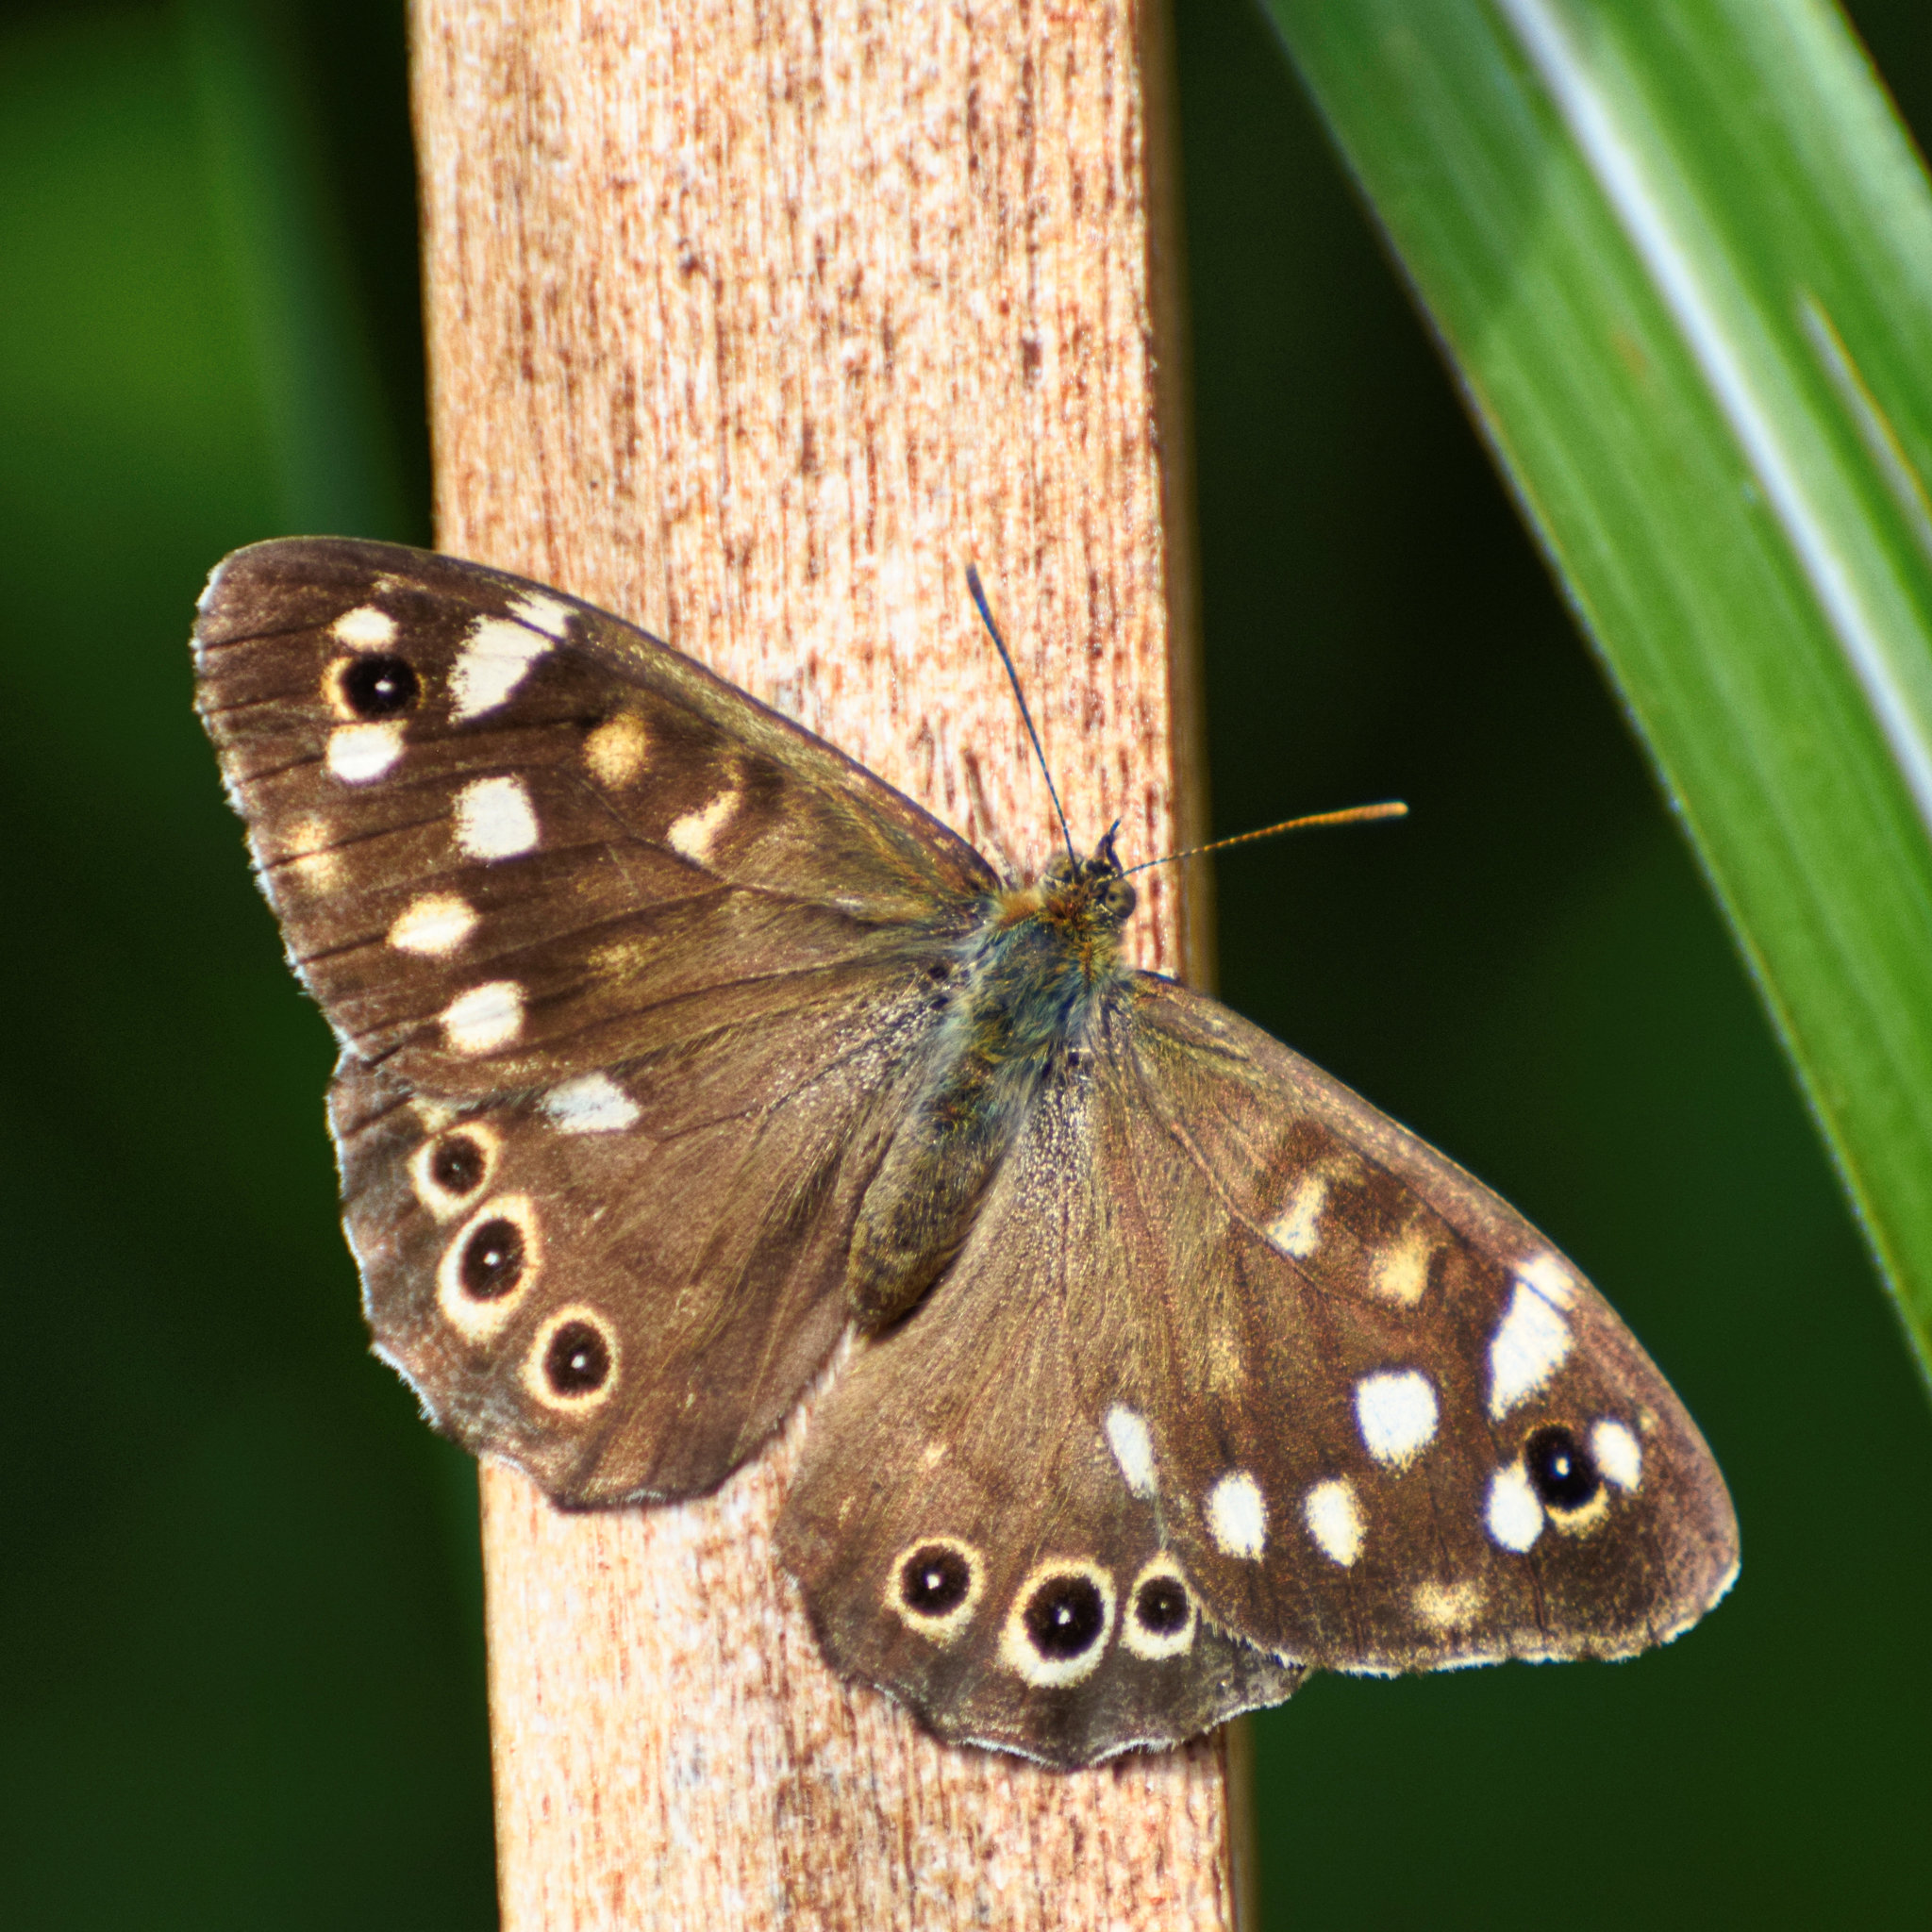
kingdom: Animalia
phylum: Arthropoda
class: Insecta
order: Lepidoptera
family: Nymphalidae
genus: Pararge
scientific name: Pararge aegeria
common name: Speckled wood
